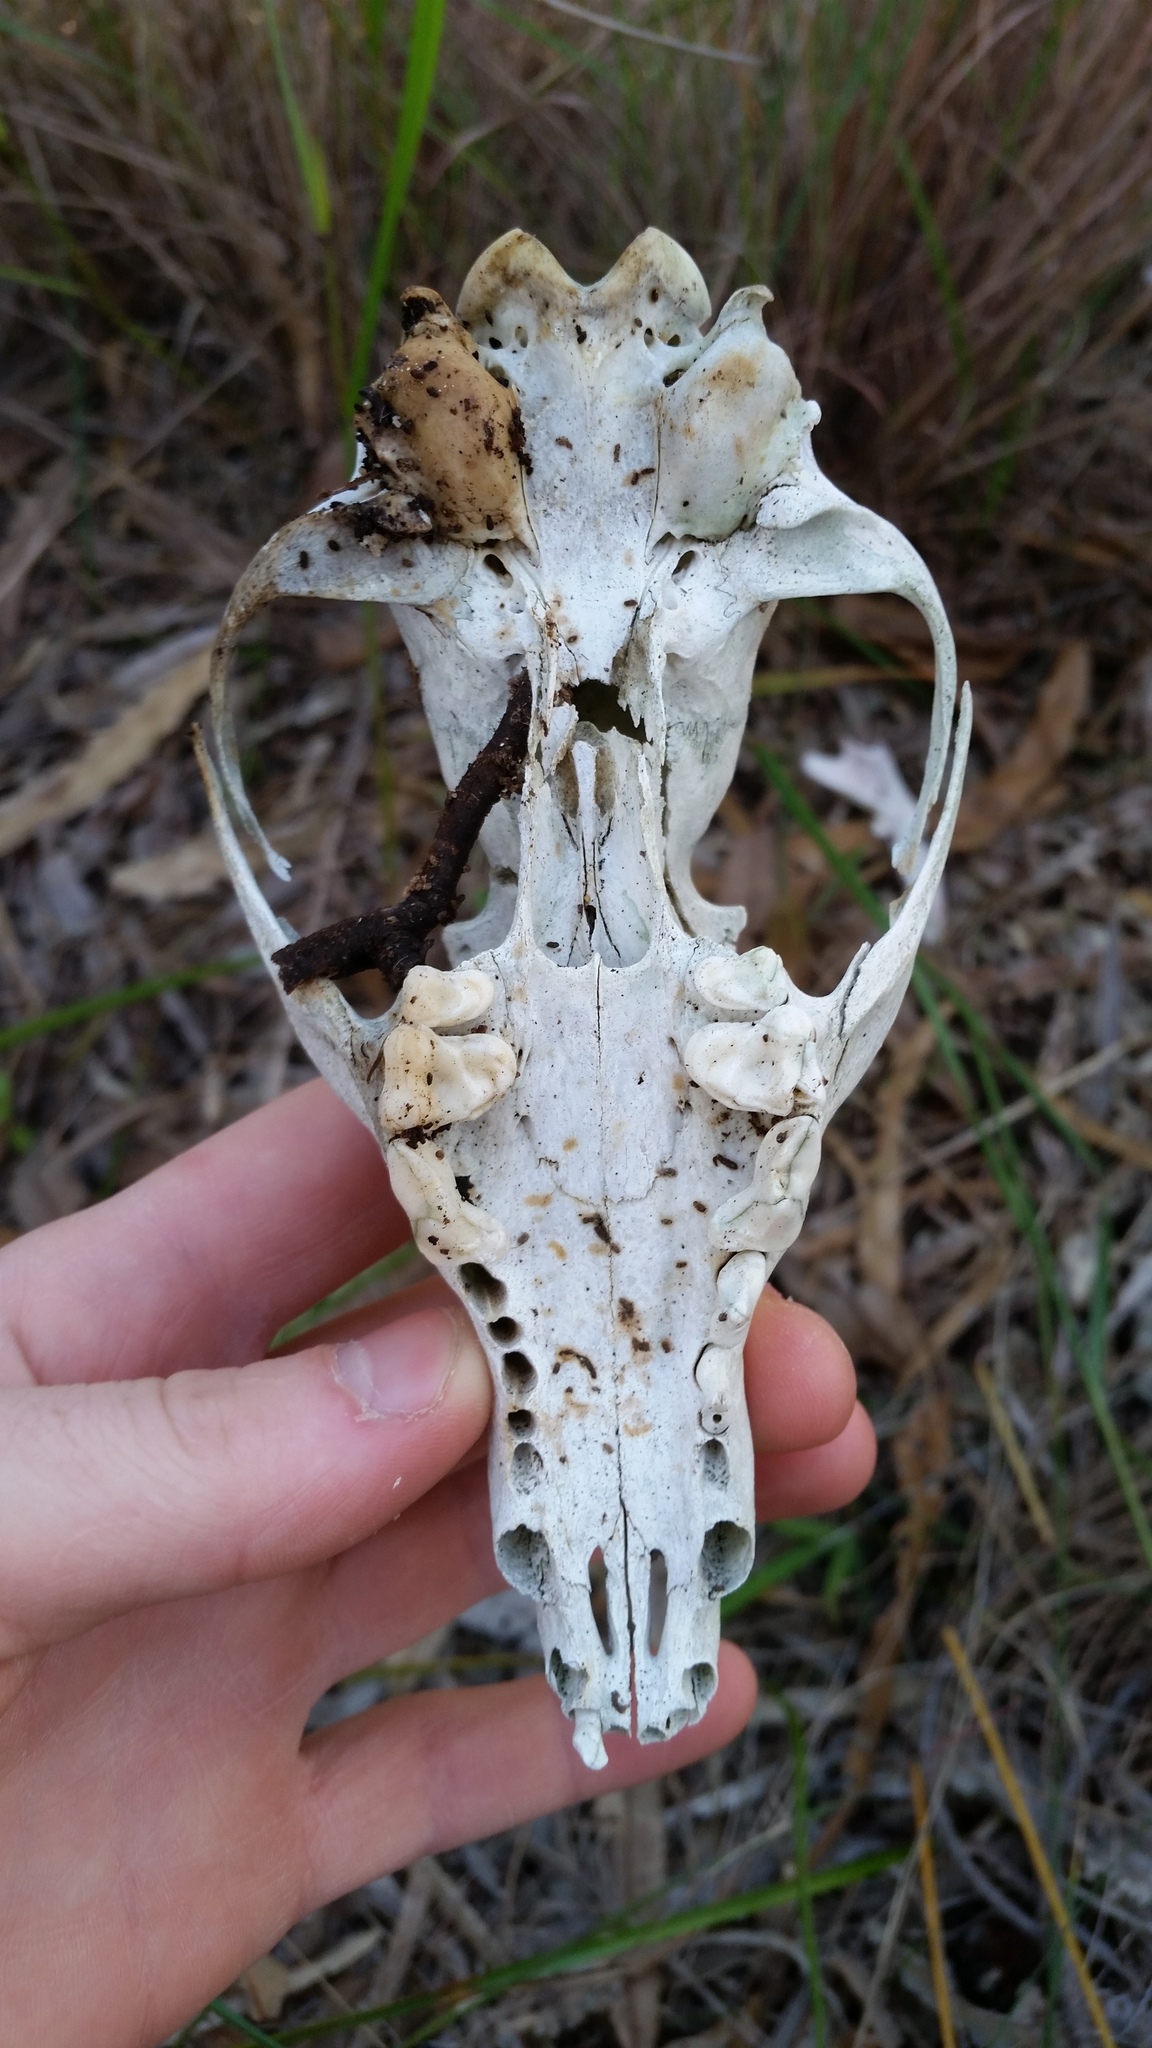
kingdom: Animalia
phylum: Chordata
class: Mammalia
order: Carnivora
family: Canidae
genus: Vulpes
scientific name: Vulpes vulpes
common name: Red fox
